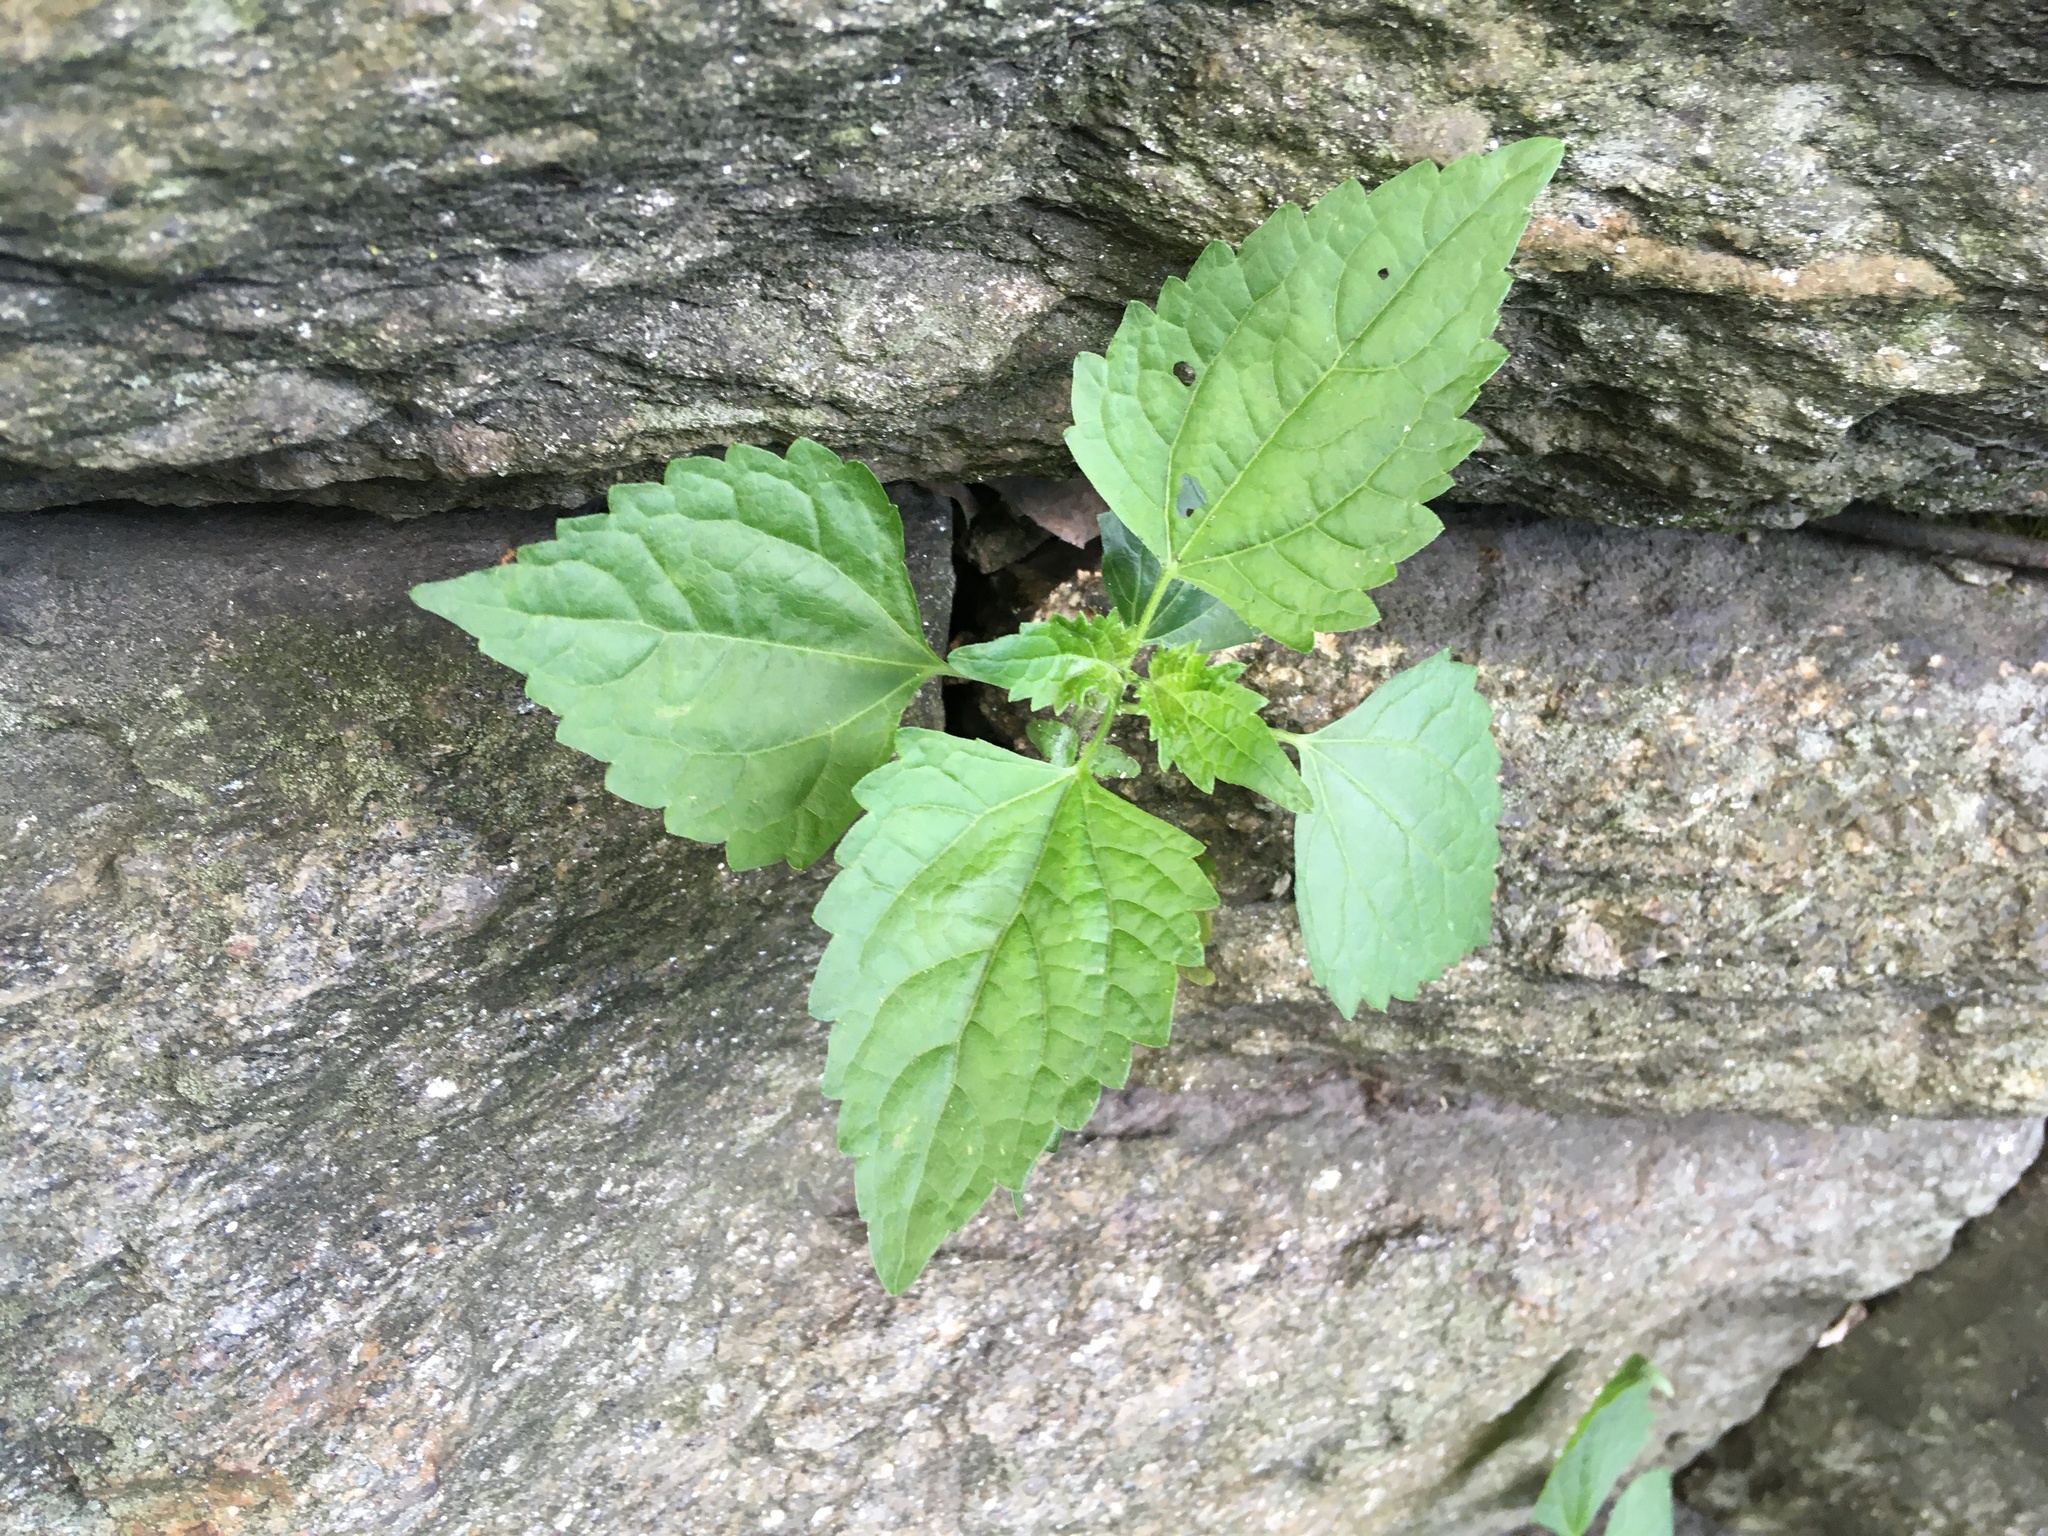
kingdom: Plantae
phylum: Tracheophyta
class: Magnoliopsida
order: Asterales
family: Asteraceae
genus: Ageratina
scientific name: Ageratina altissima
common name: White snakeroot
